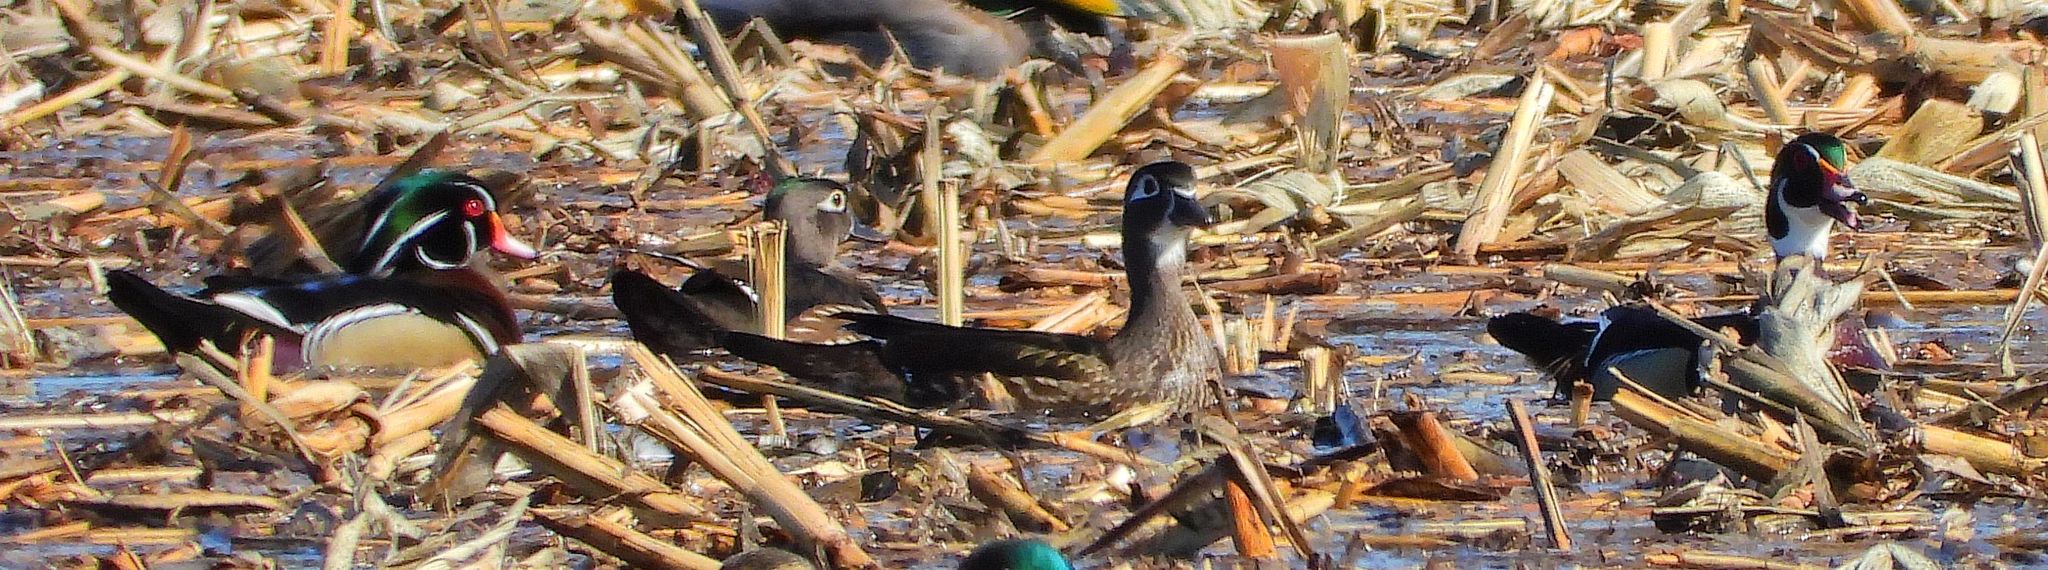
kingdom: Animalia
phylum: Chordata
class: Aves
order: Anseriformes
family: Anatidae
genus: Aix
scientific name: Aix sponsa
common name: Wood duck
